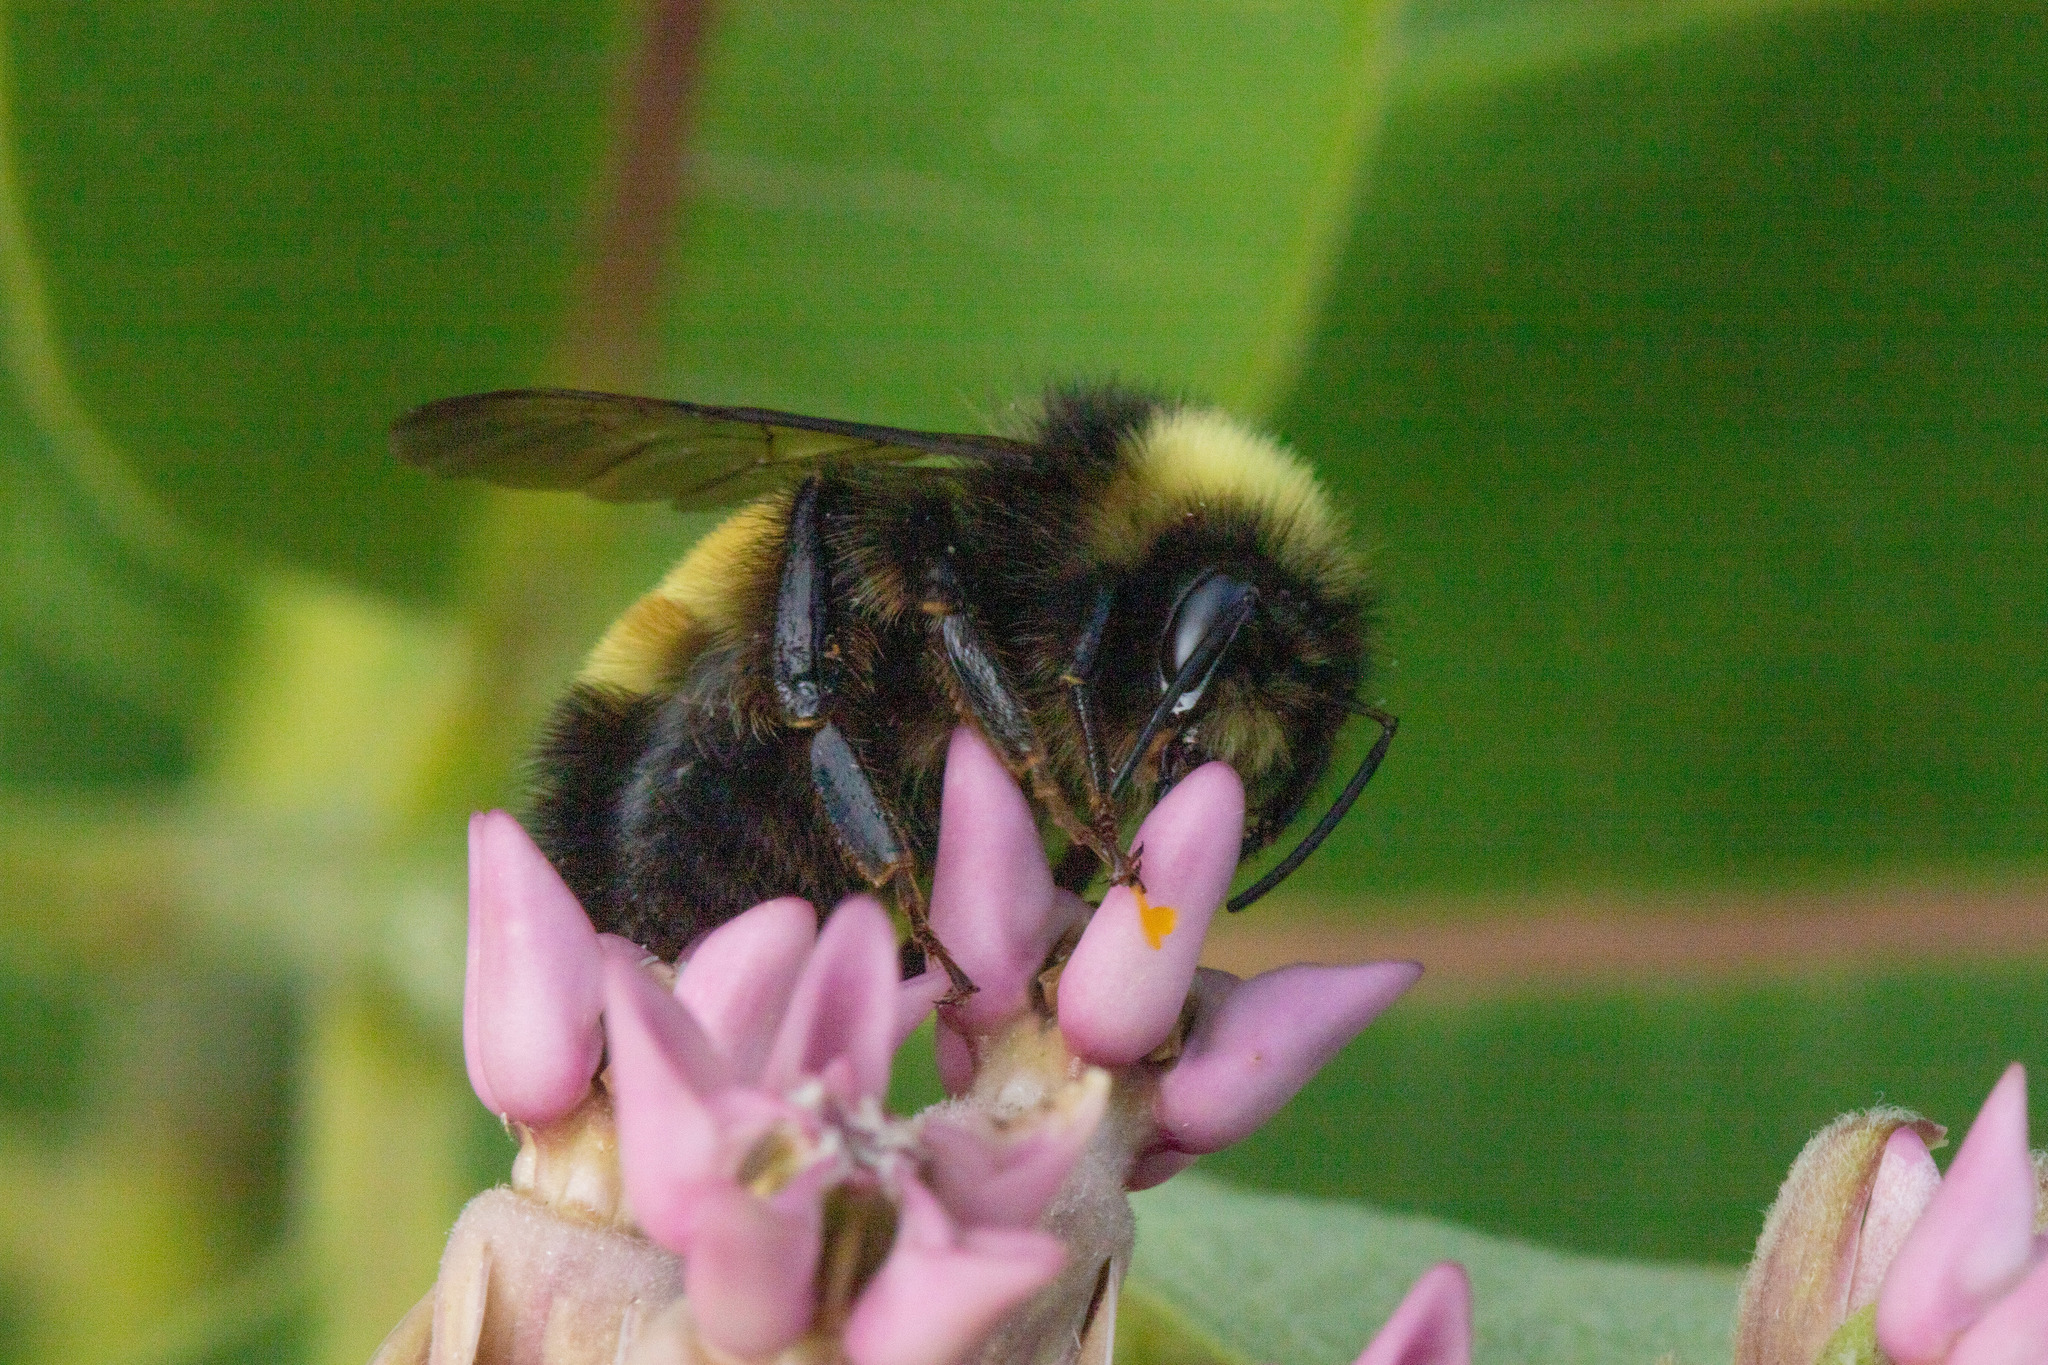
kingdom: Animalia
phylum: Arthropoda
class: Insecta
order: Hymenoptera
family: Apidae
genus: Bombus
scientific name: Bombus terricola
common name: Yellow-banded bumble bee
